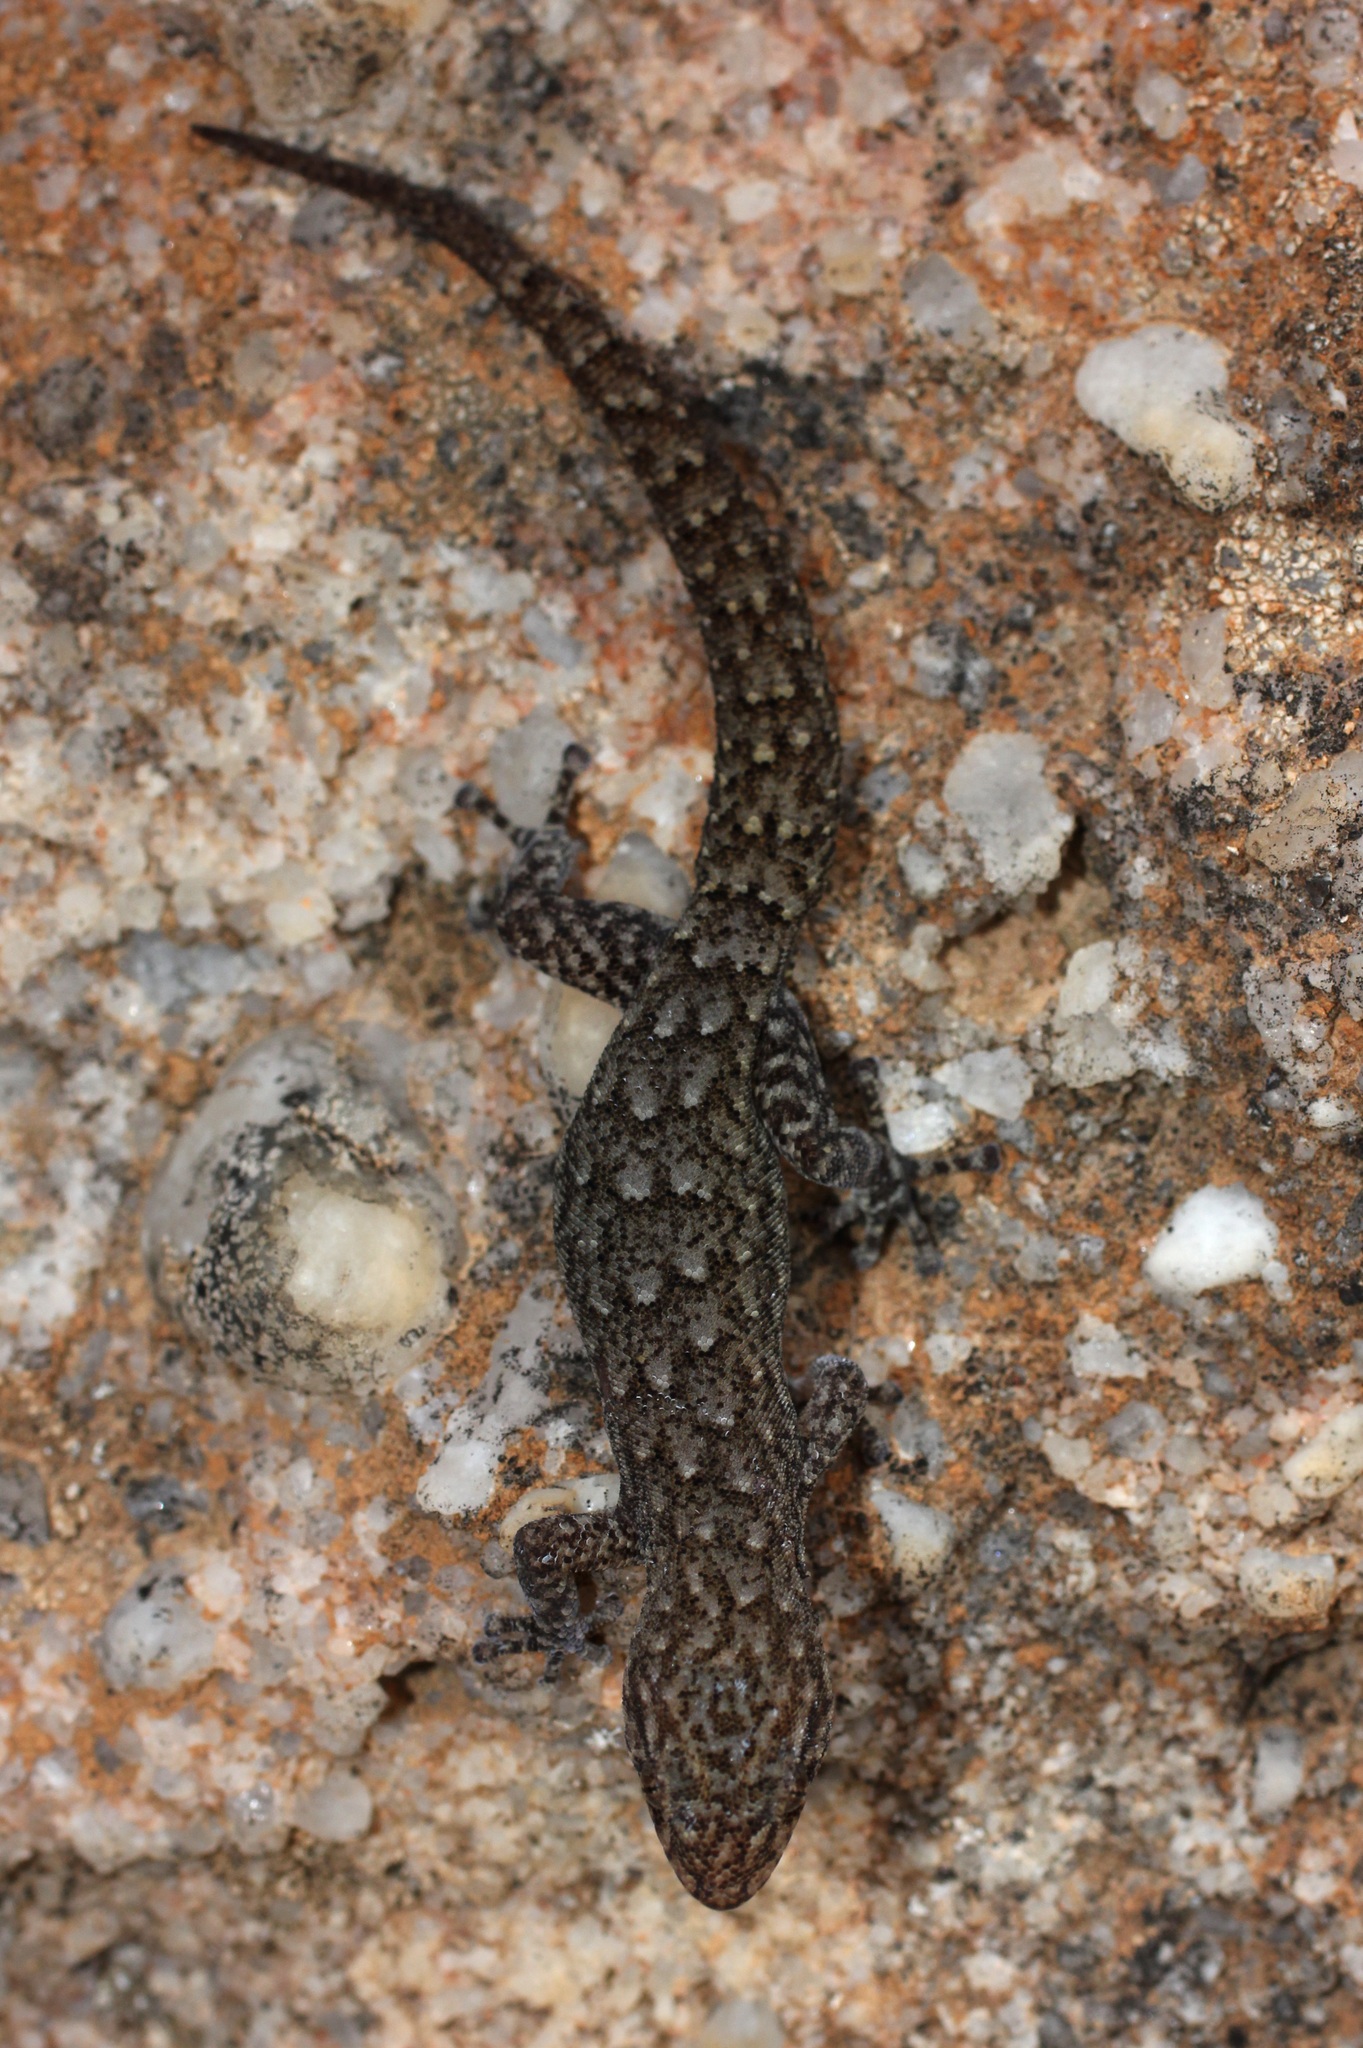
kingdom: Animalia
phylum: Chordata
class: Squamata
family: Gekkonidae
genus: Goggia
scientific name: Goggia hexapora
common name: Cedarberg dwarf leaf-toed gecko
